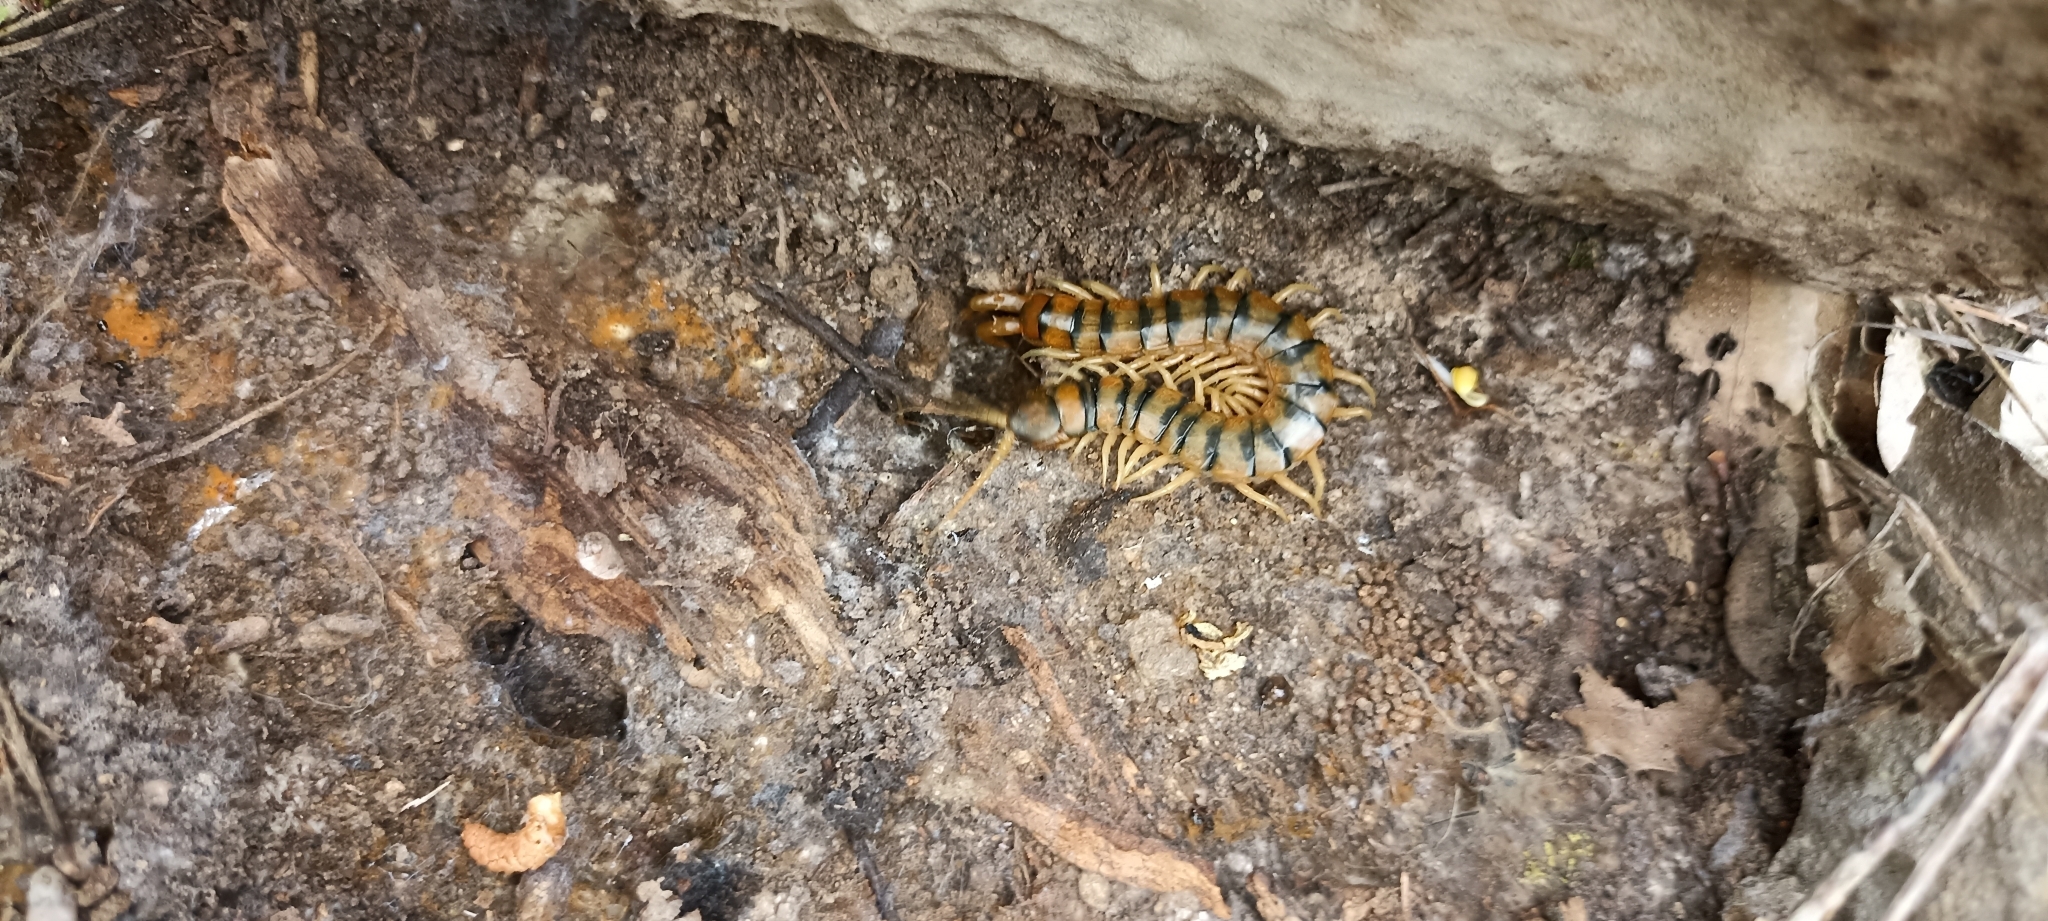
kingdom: Animalia
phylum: Arthropoda
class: Chilopoda
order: Scolopendromorpha
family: Scolopendridae
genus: Scolopendra
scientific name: Scolopendra cingulata
